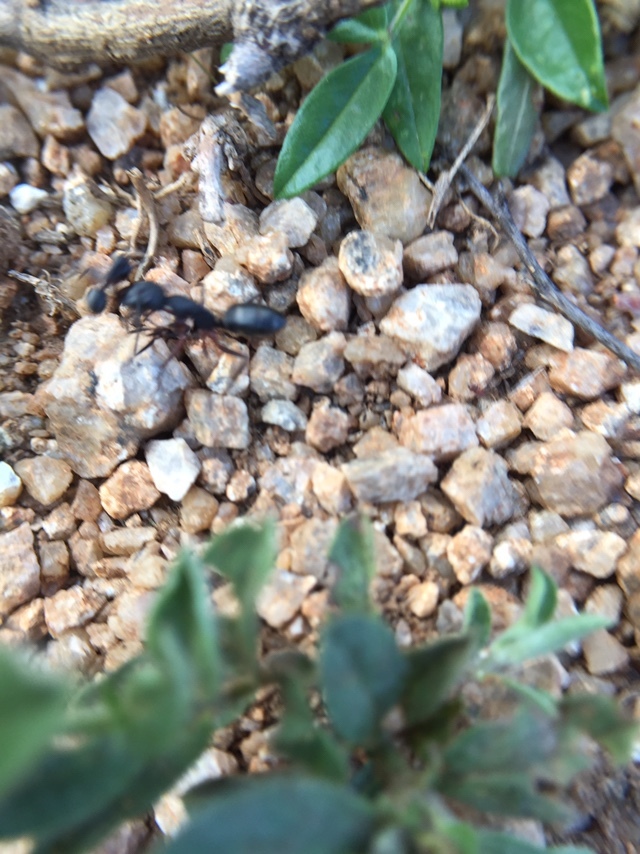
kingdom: Animalia
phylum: Arthropoda
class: Insecta
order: Hymenoptera
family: Formicidae
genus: Camponotus
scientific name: Camponotus compressus
